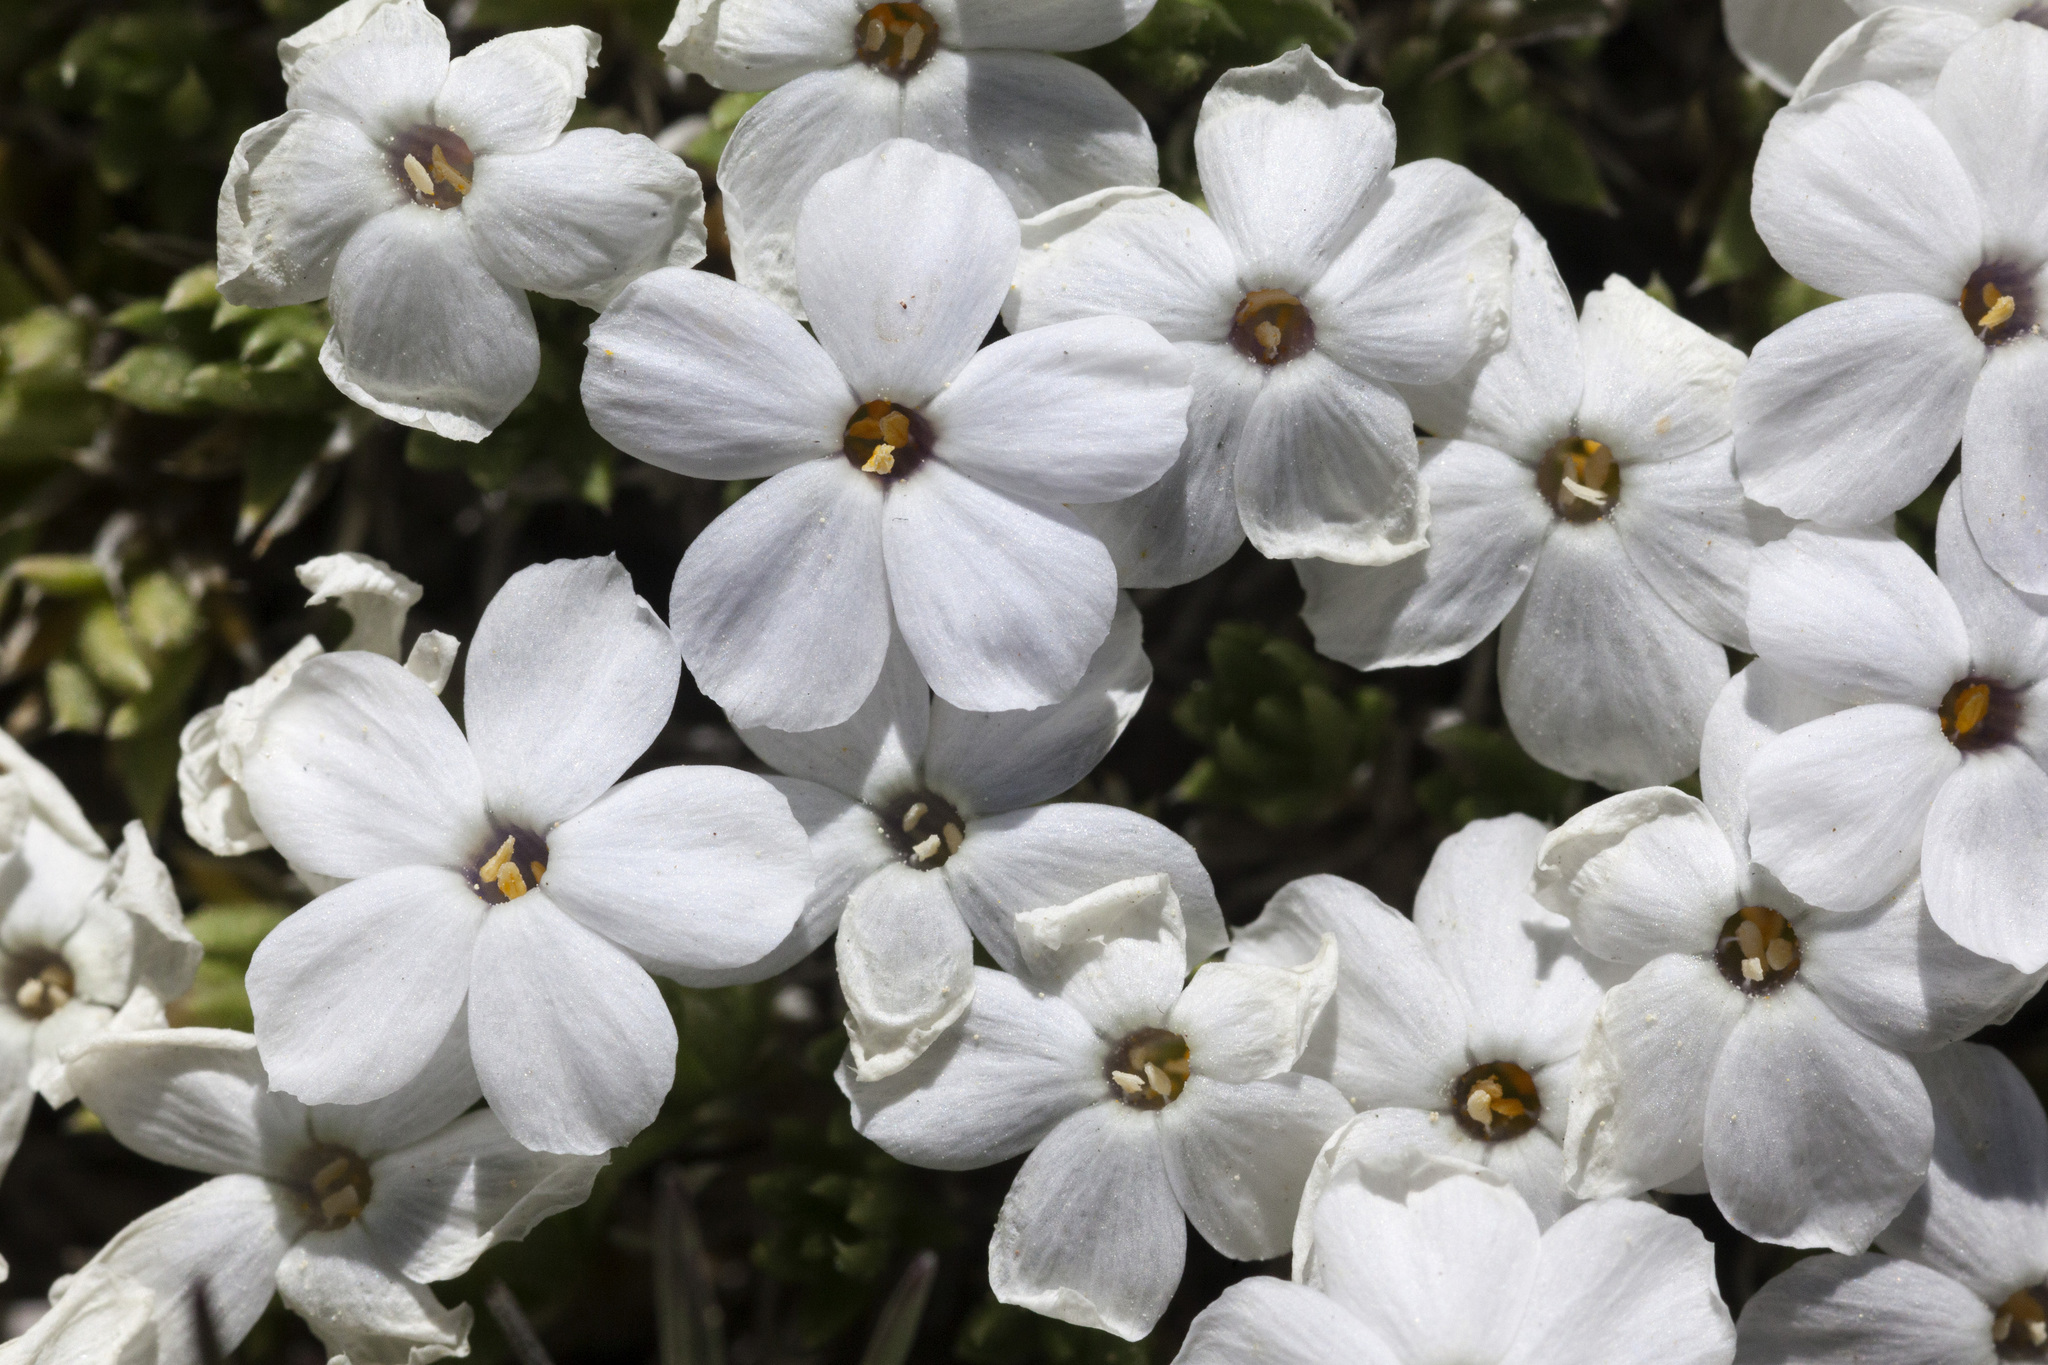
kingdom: Plantae
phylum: Tracheophyta
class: Magnoliopsida
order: Ericales
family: Polemoniaceae
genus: Phlox
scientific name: Phlox condensata
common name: Compact phlox
